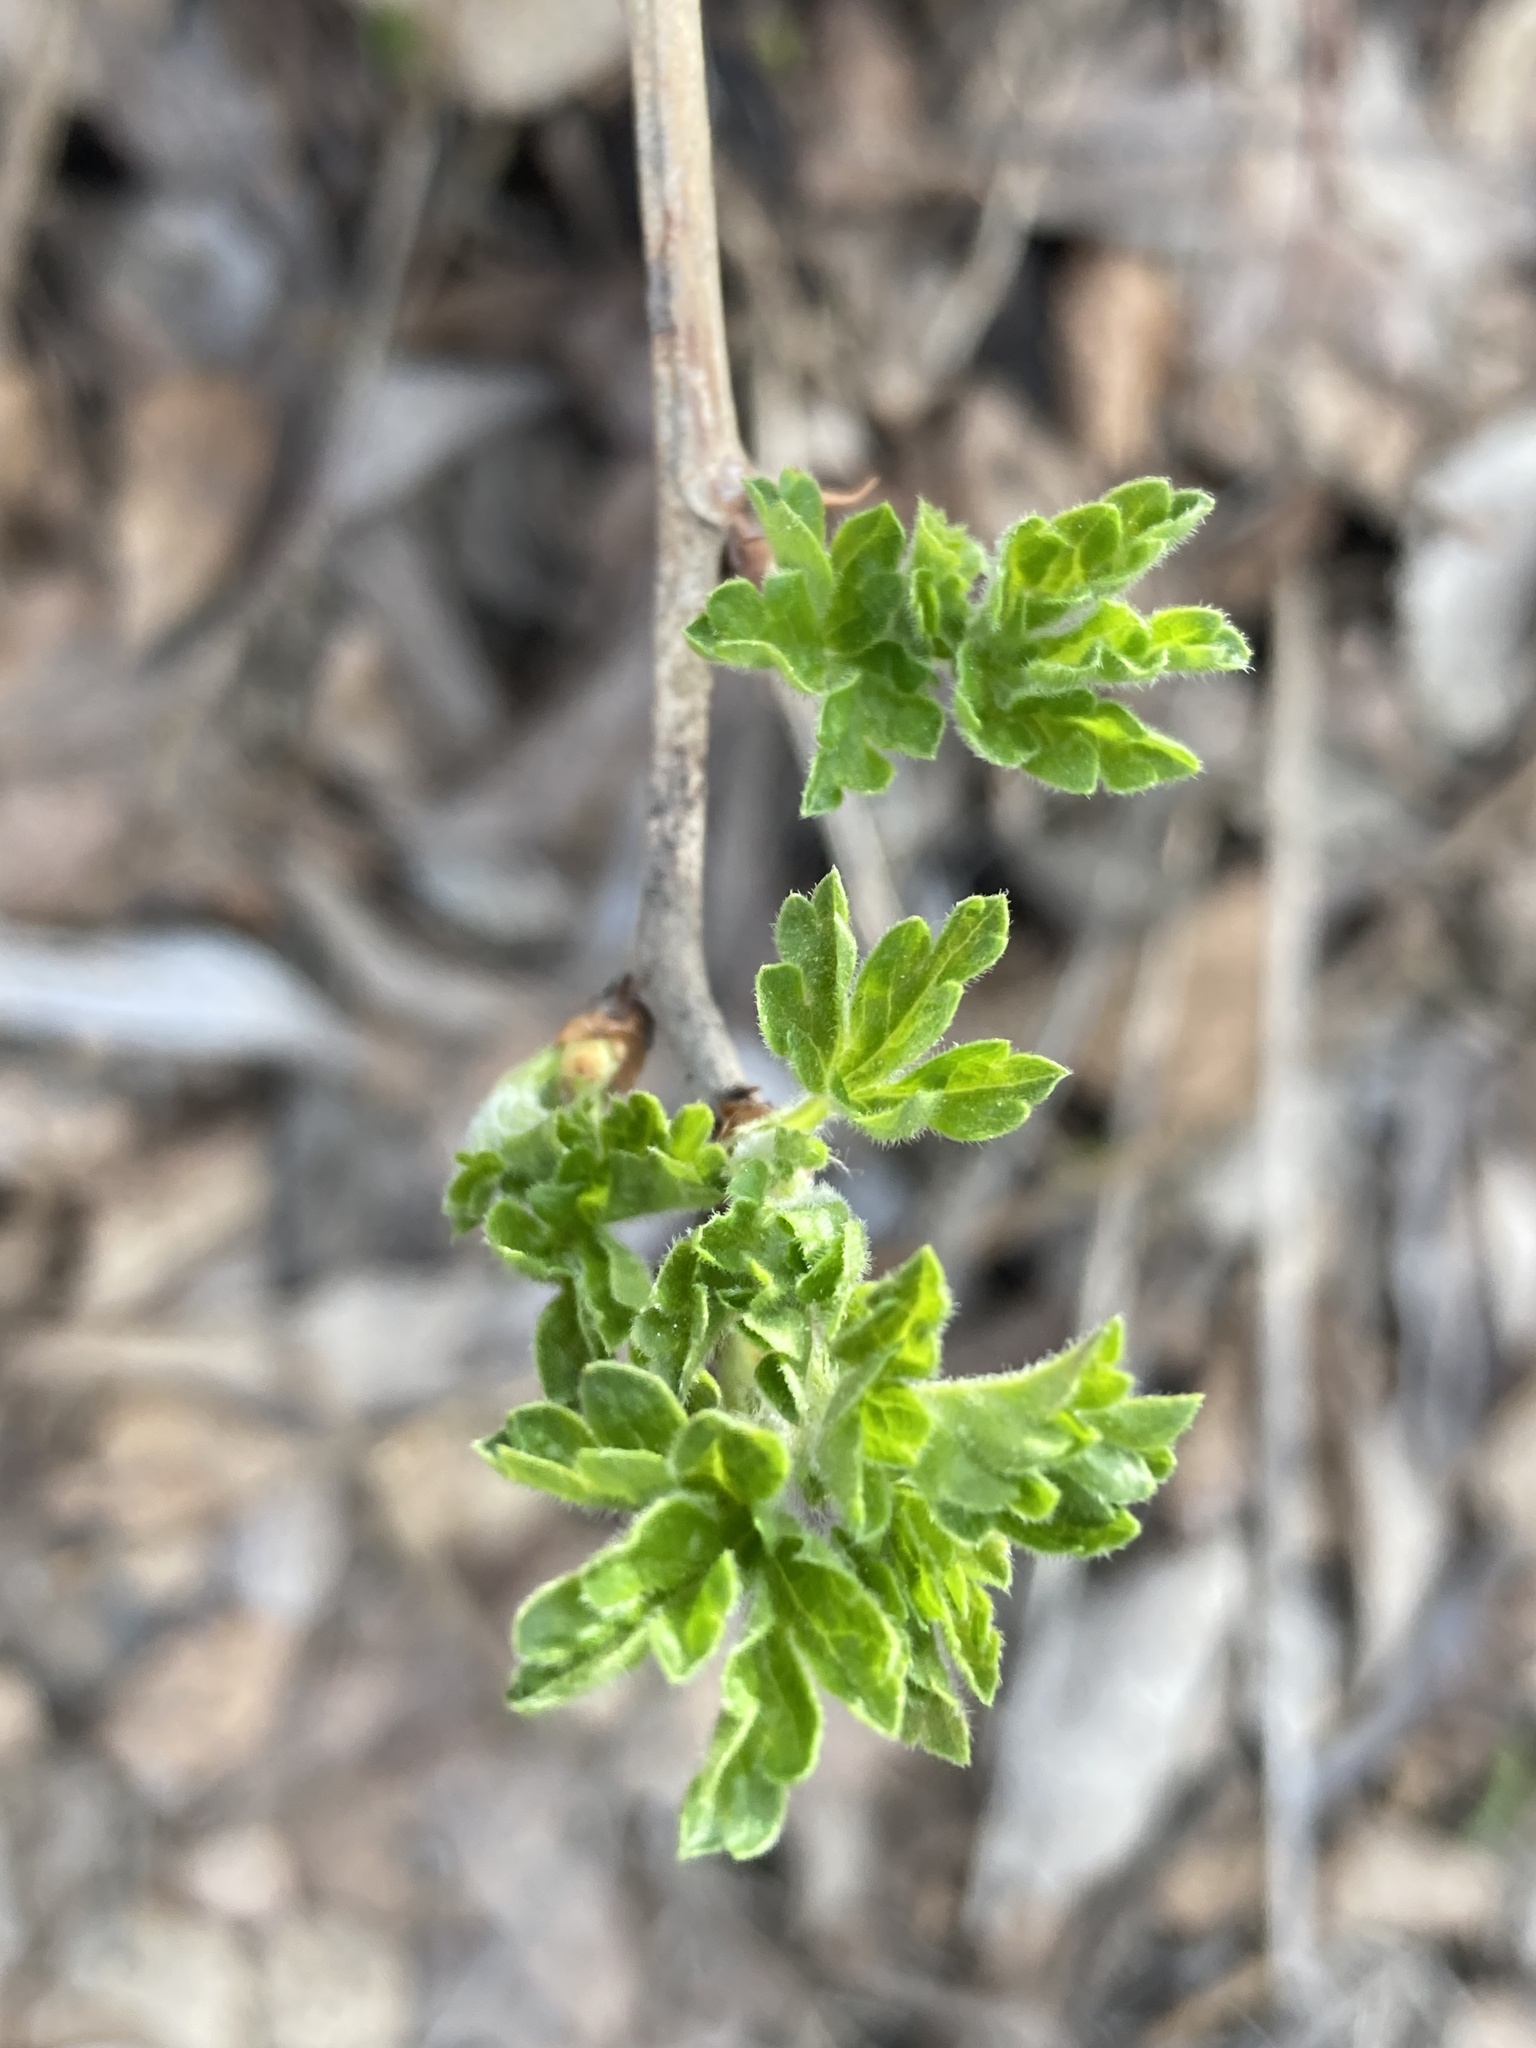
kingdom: Plantae
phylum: Tracheophyta
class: Magnoliopsida
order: Saxifragales
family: Grossulariaceae
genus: Ribes
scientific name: Ribes uva-crispa
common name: Gooseberry
